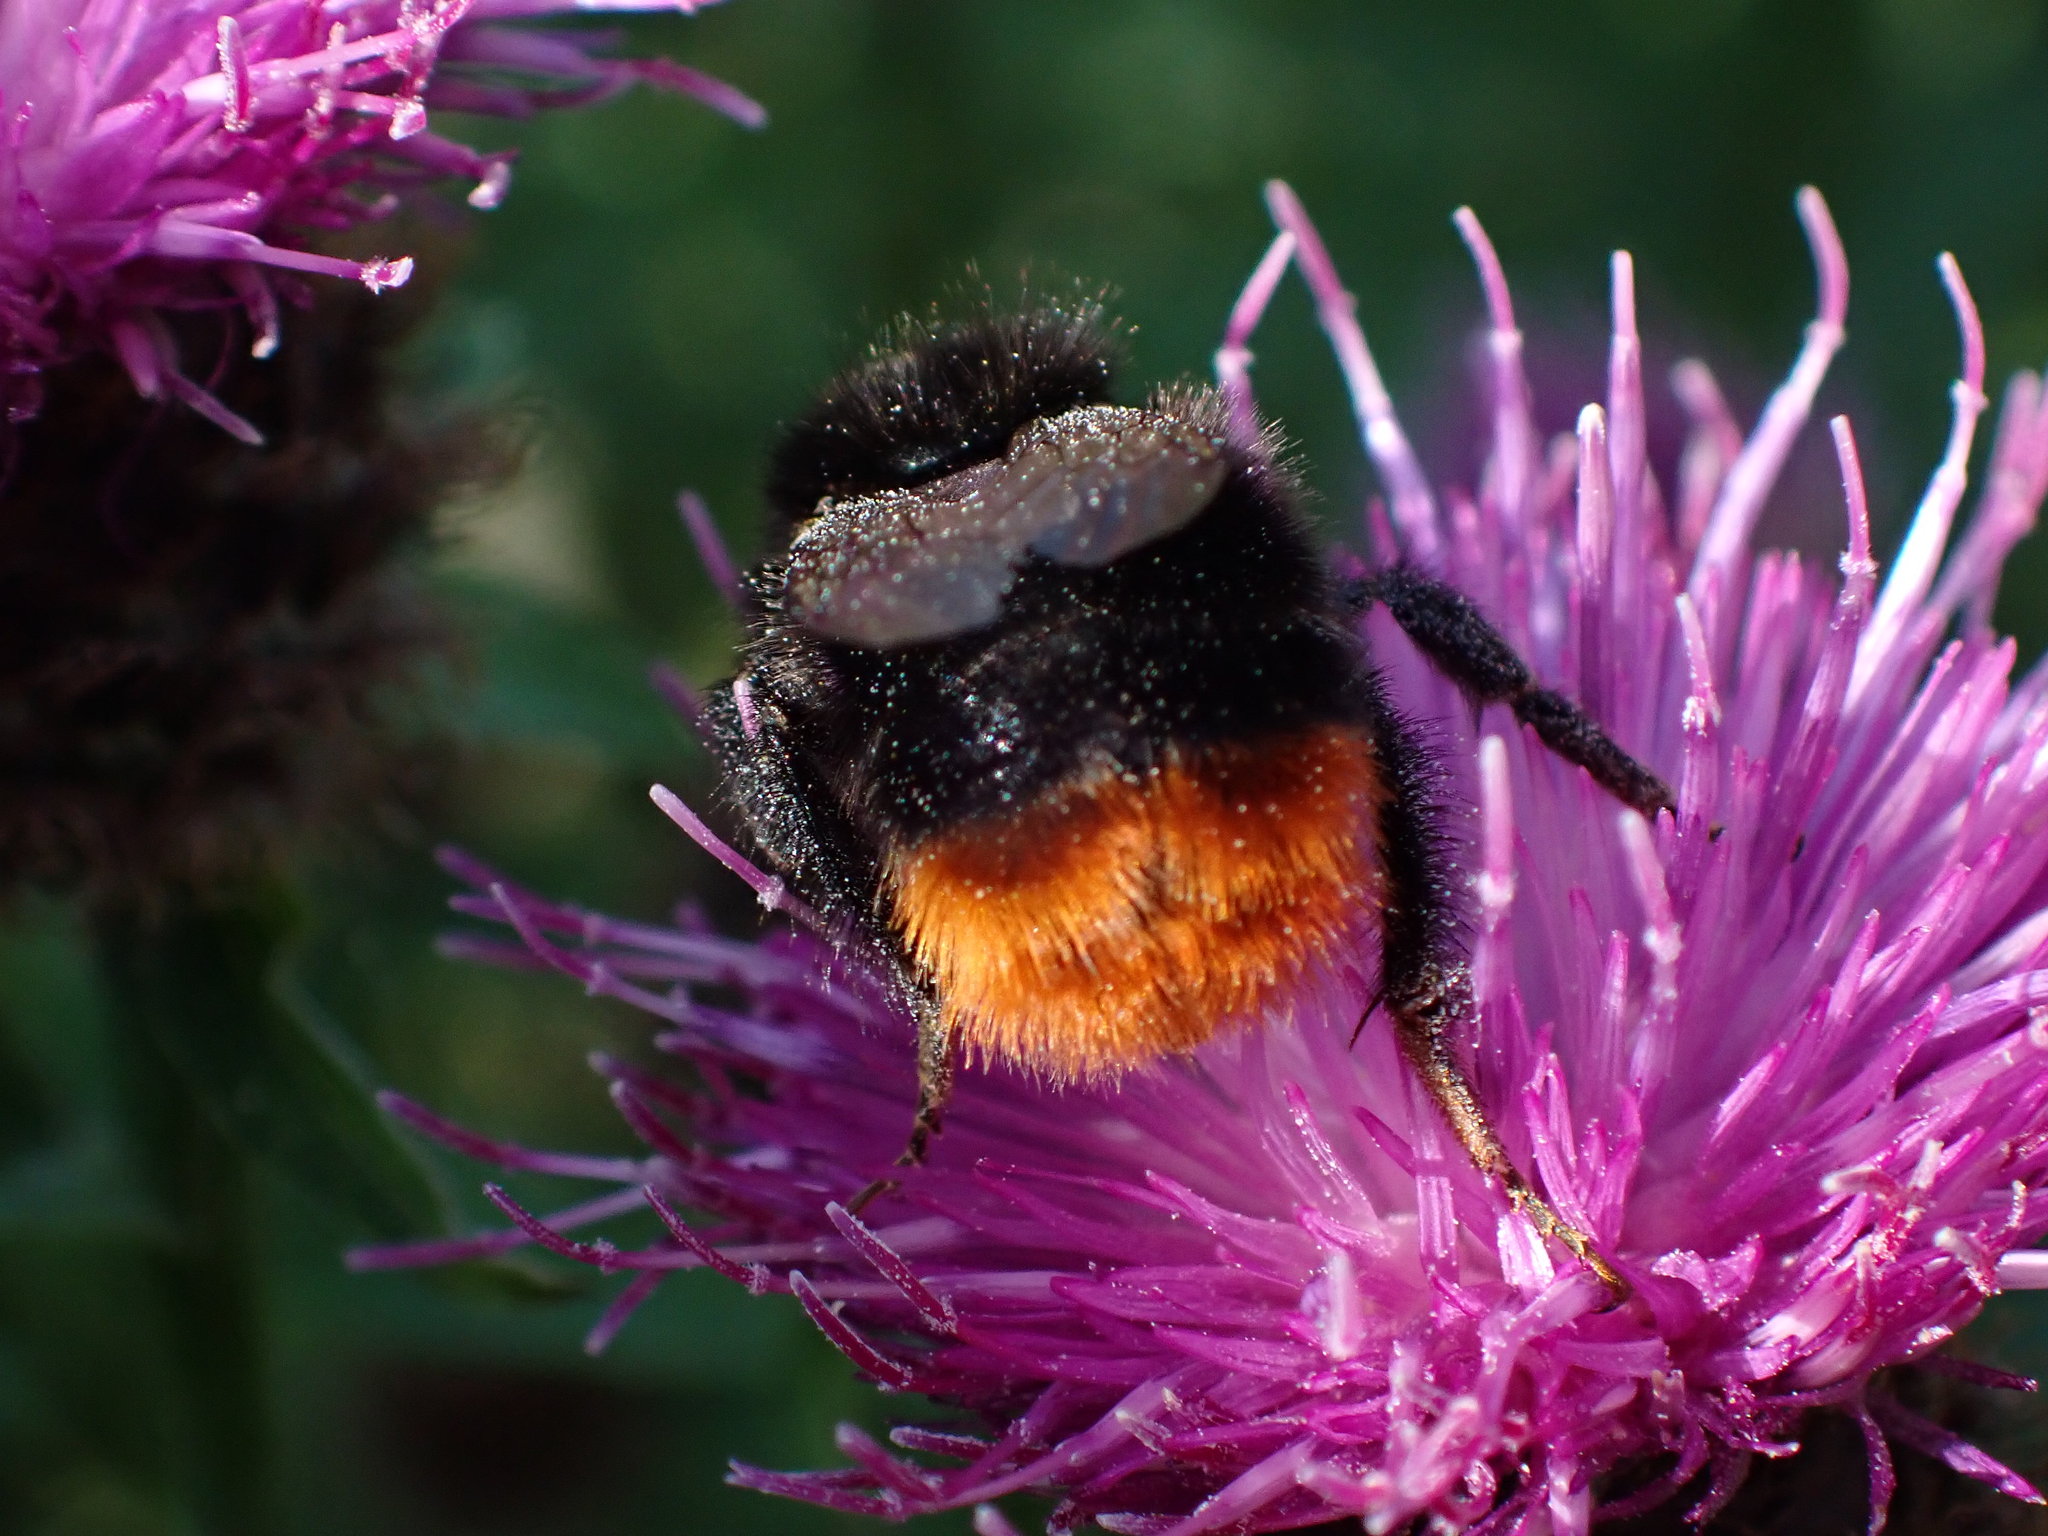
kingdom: Animalia
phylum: Arthropoda
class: Insecta
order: Hymenoptera
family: Apidae
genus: Bombus
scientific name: Bombus lapidarius
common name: Large red-tailed humble-bee
